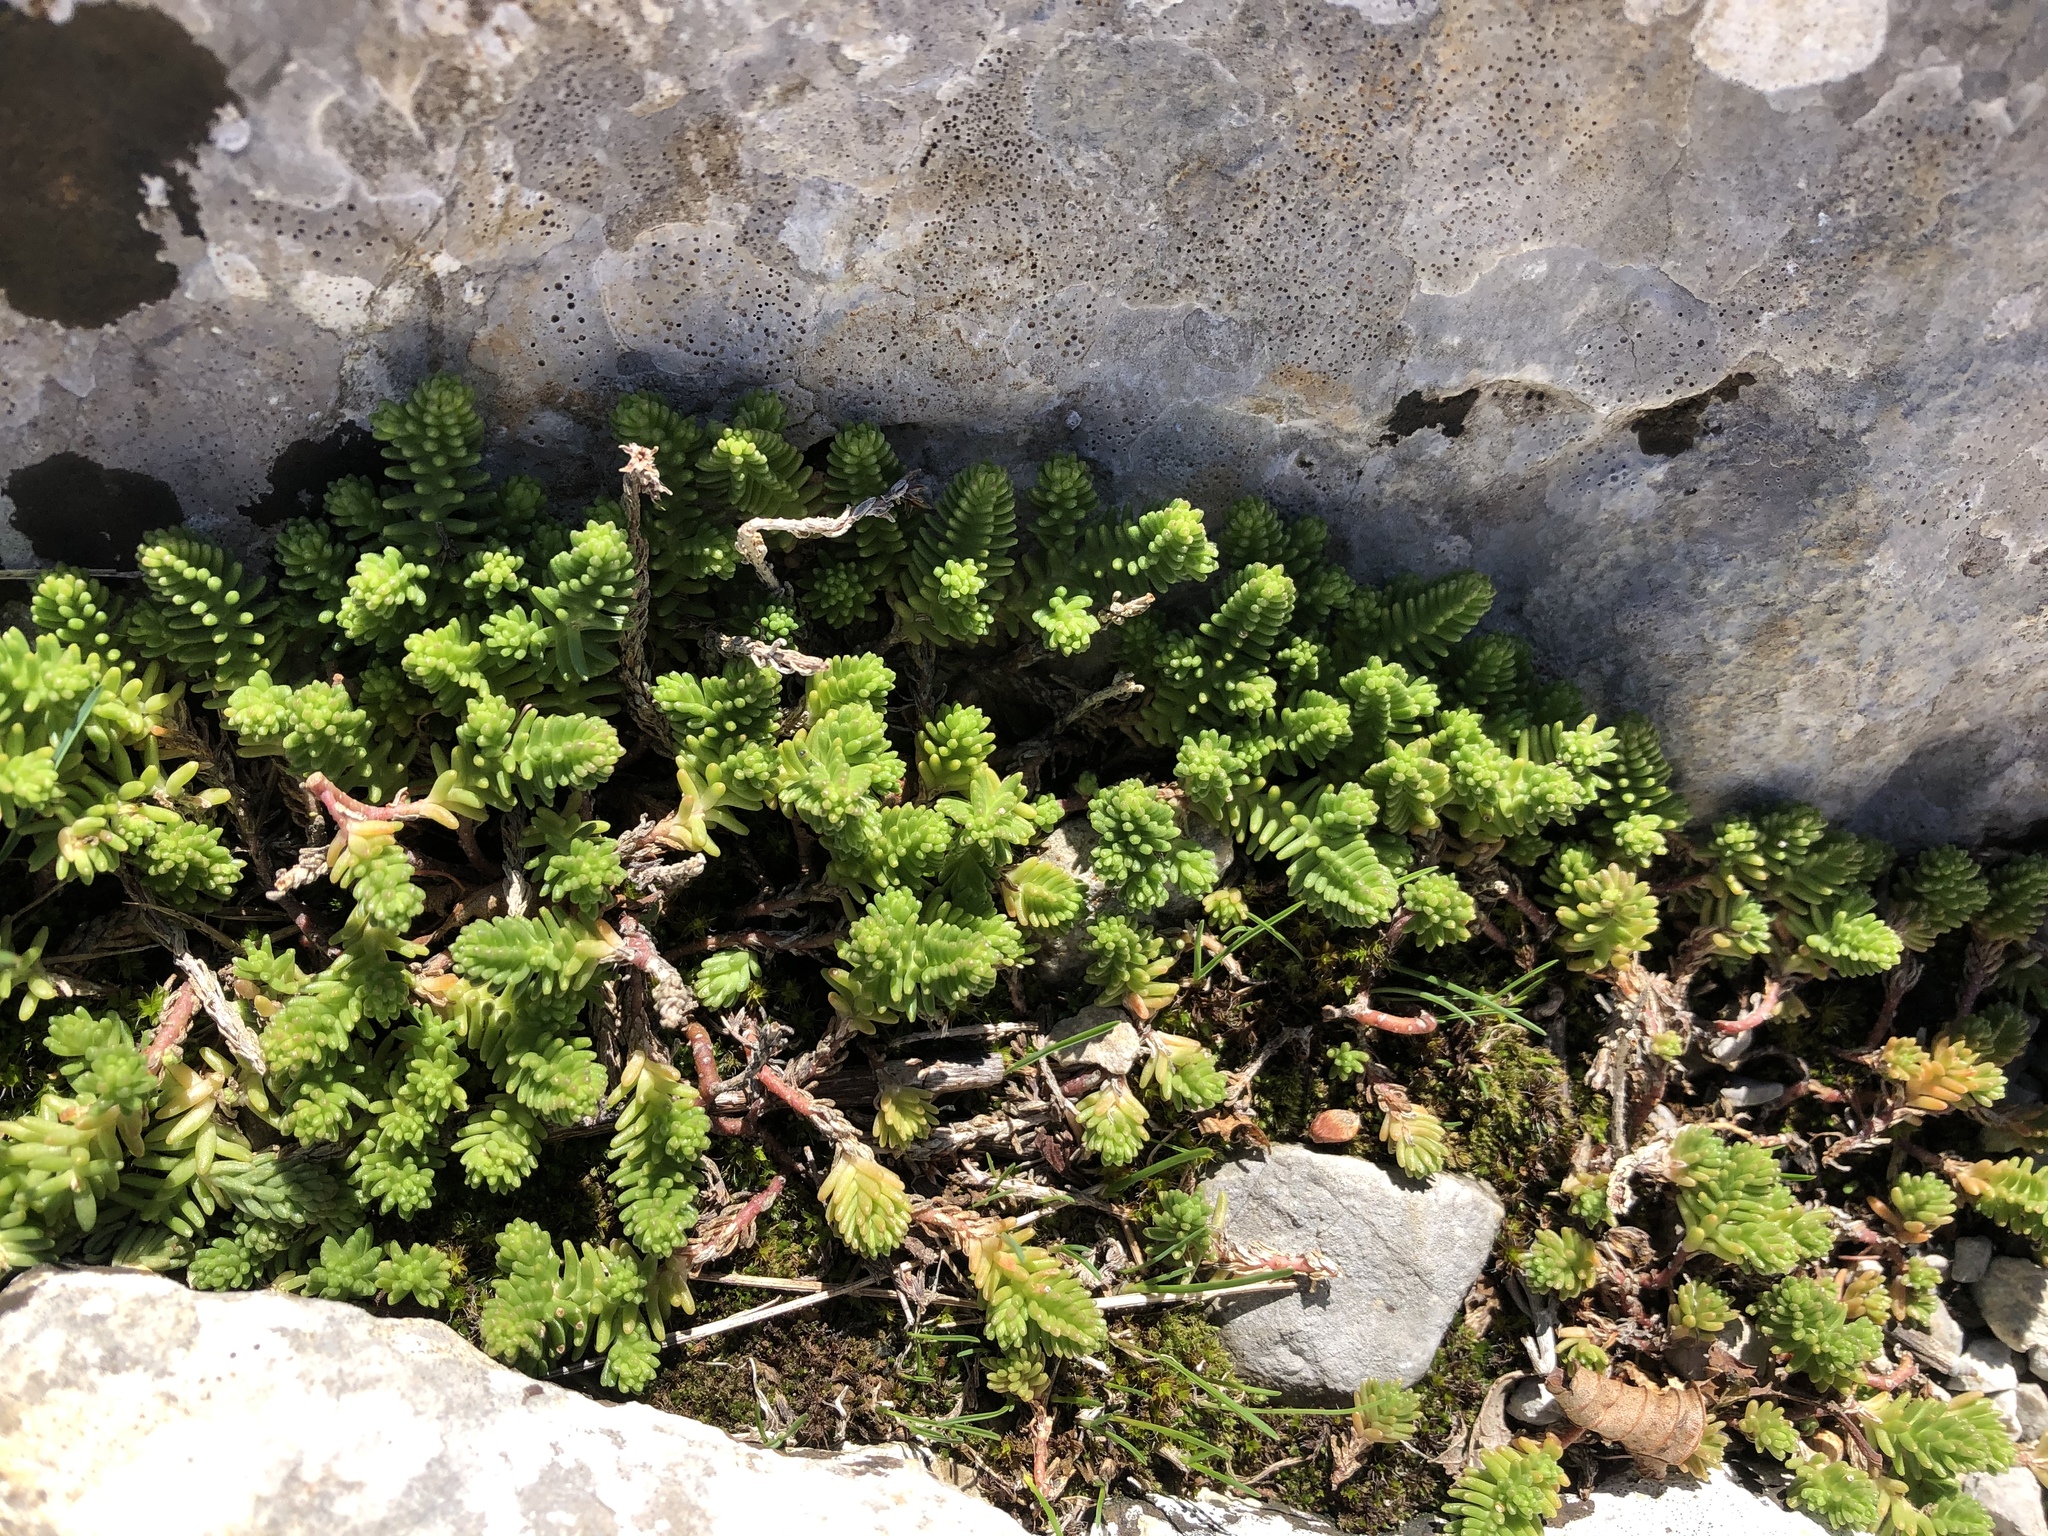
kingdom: Plantae
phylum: Tracheophyta
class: Magnoliopsida
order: Saxifragales
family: Crassulaceae
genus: Sedum
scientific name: Sedum sexangulare
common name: Tasteless stonecrop
